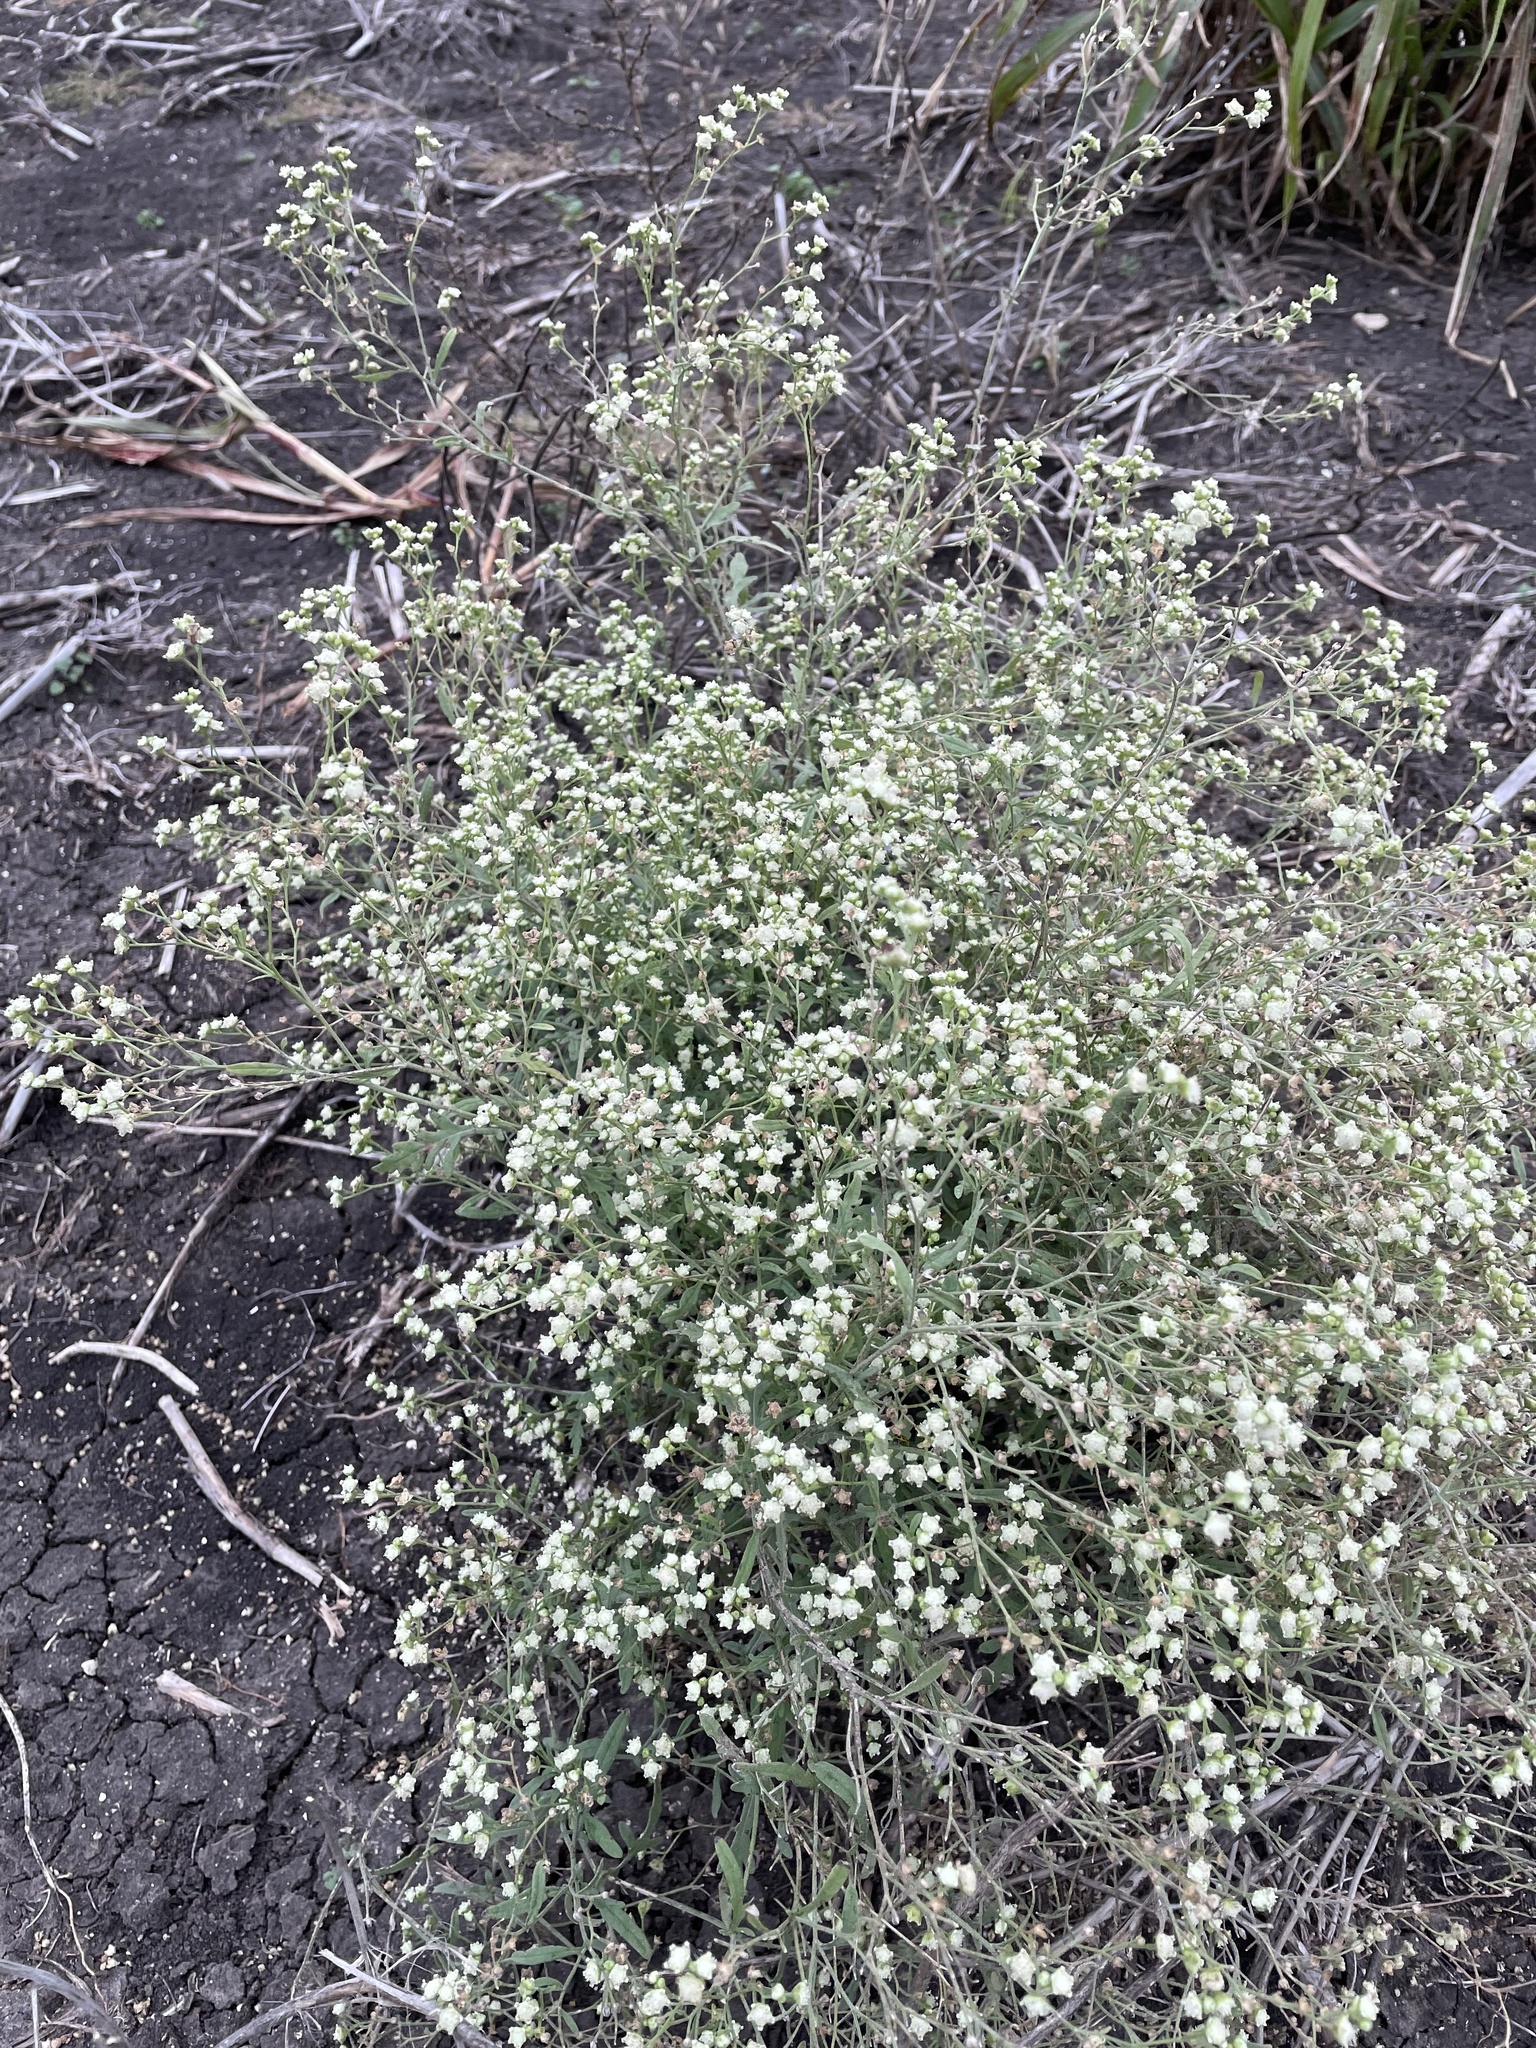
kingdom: Plantae
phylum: Tracheophyta
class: Magnoliopsida
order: Asterales
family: Asteraceae
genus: Parthenium
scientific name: Parthenium hysterophorus
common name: Santa maria feverfew
